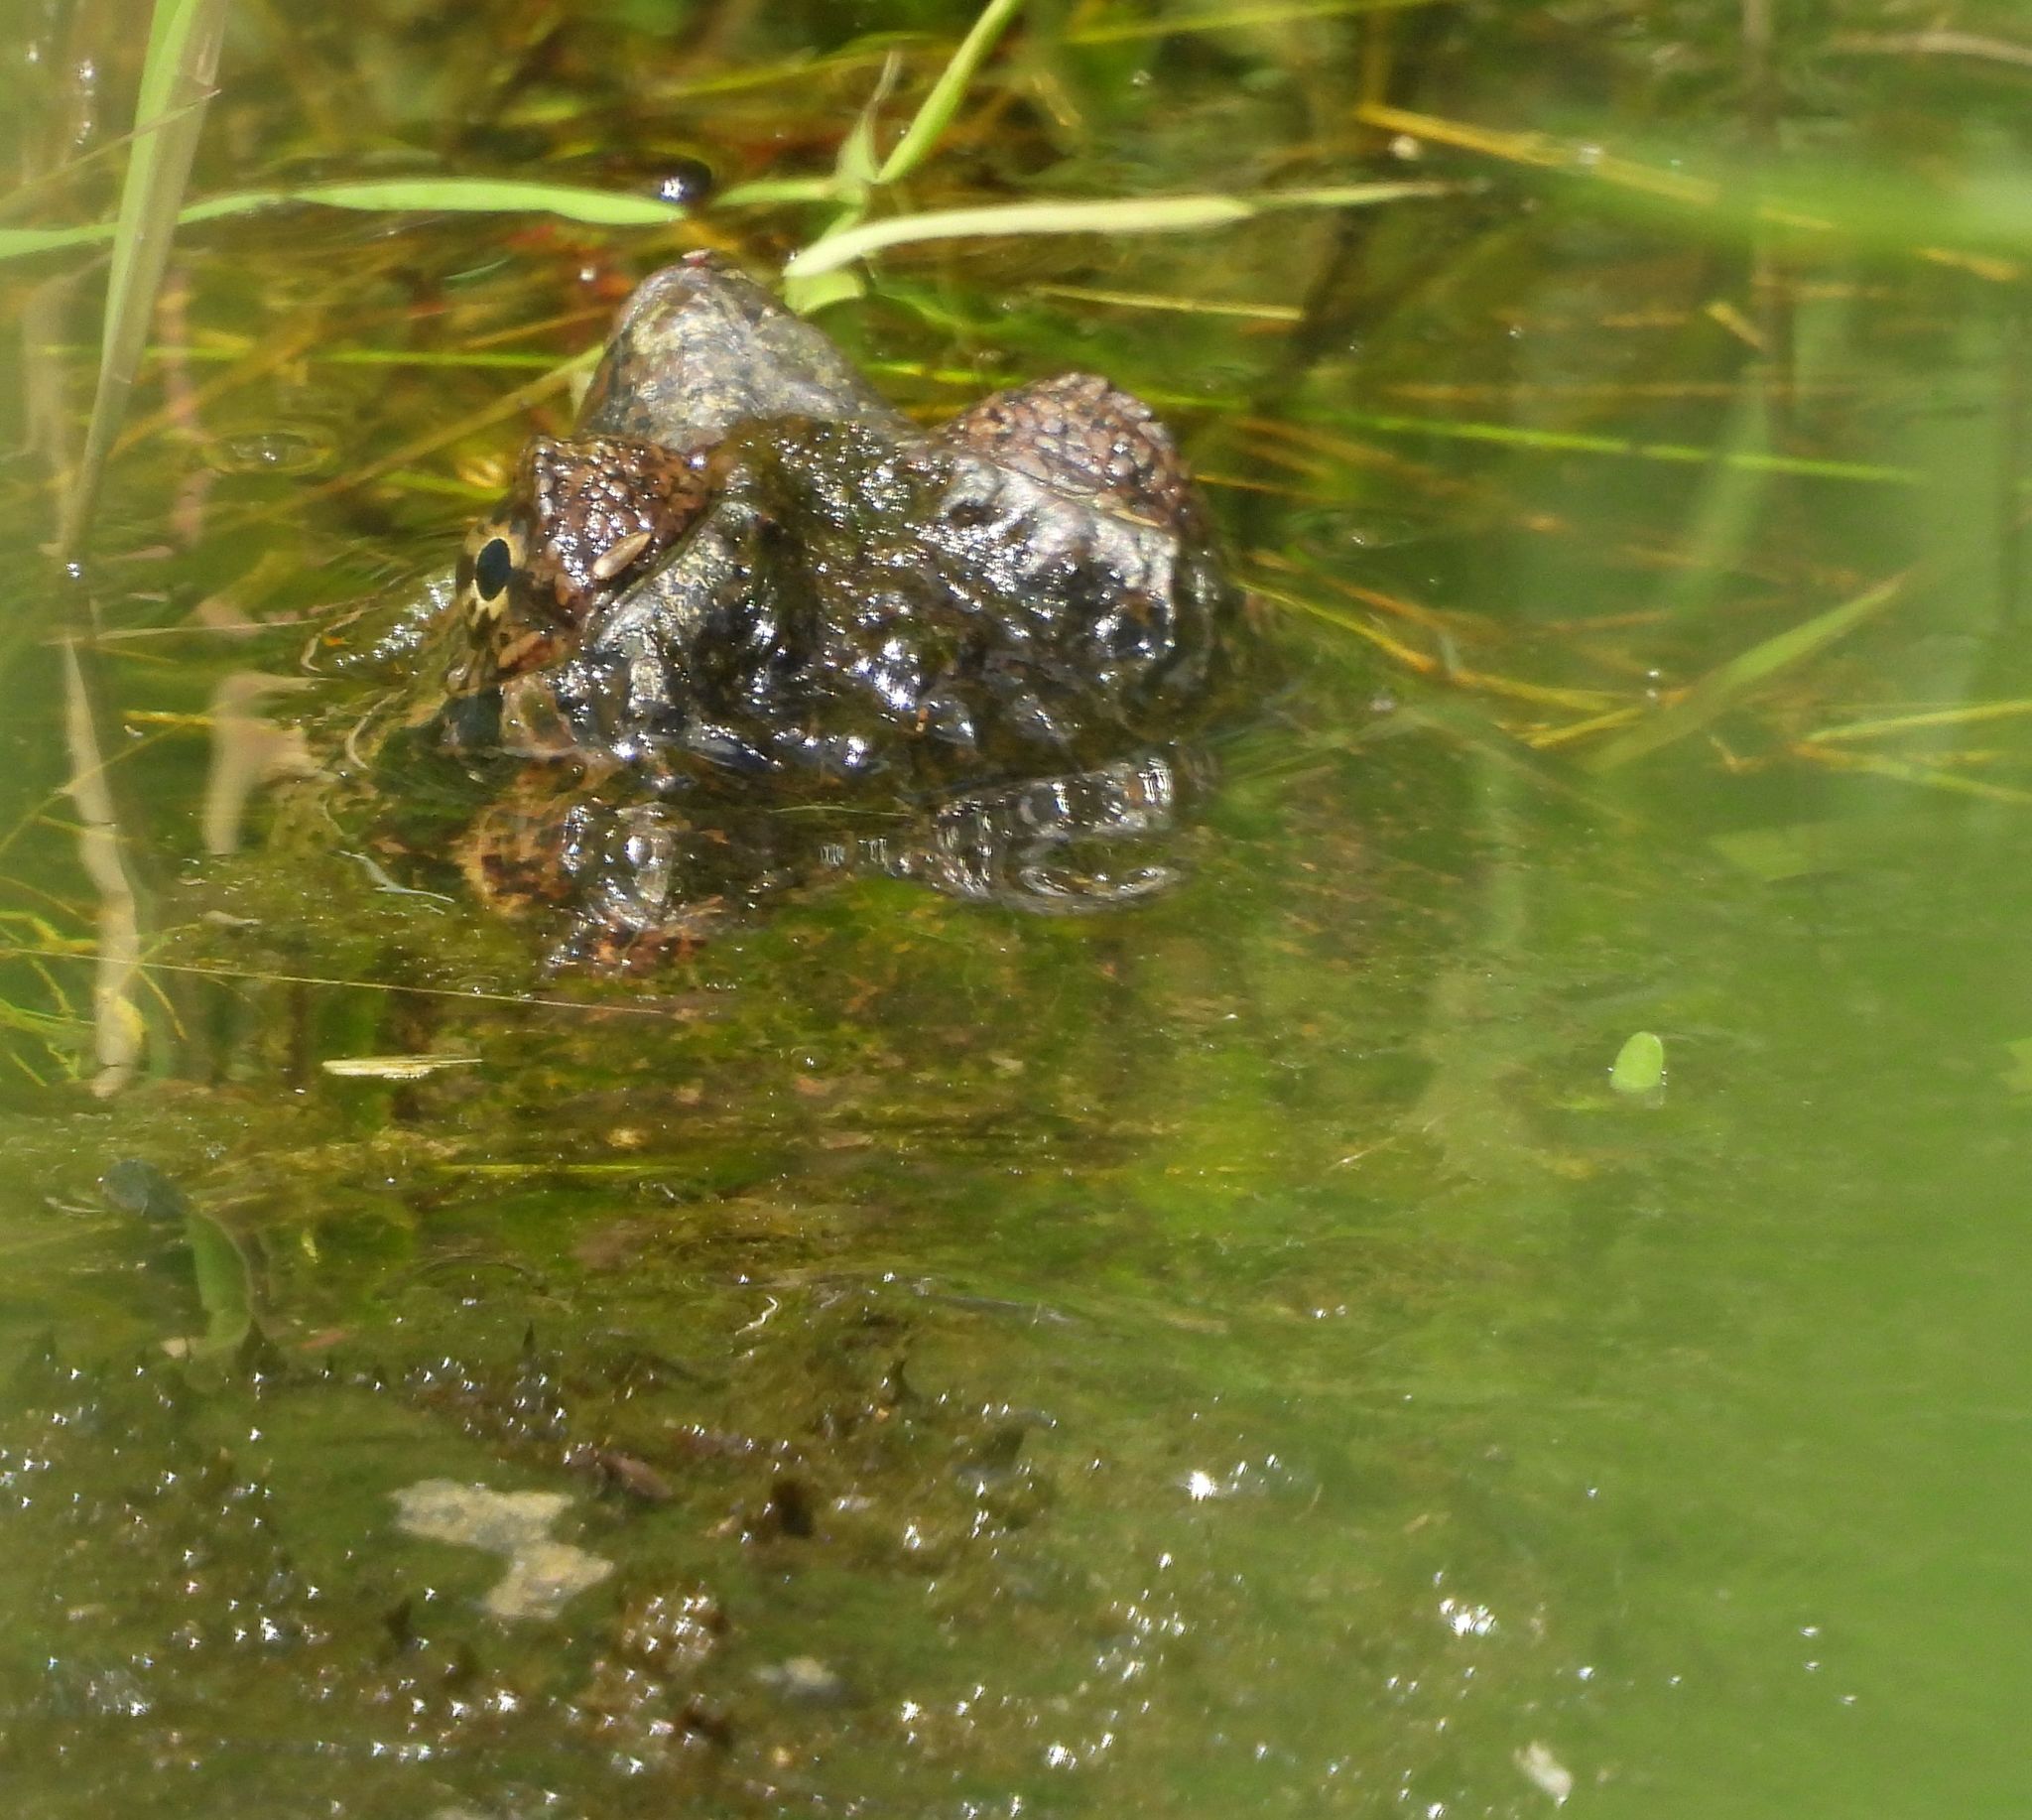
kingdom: Animalia
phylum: Chordata
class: Testudines
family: Chelydridae
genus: Chelydra
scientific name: Chelydra serpentina
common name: Common snapping turtle
